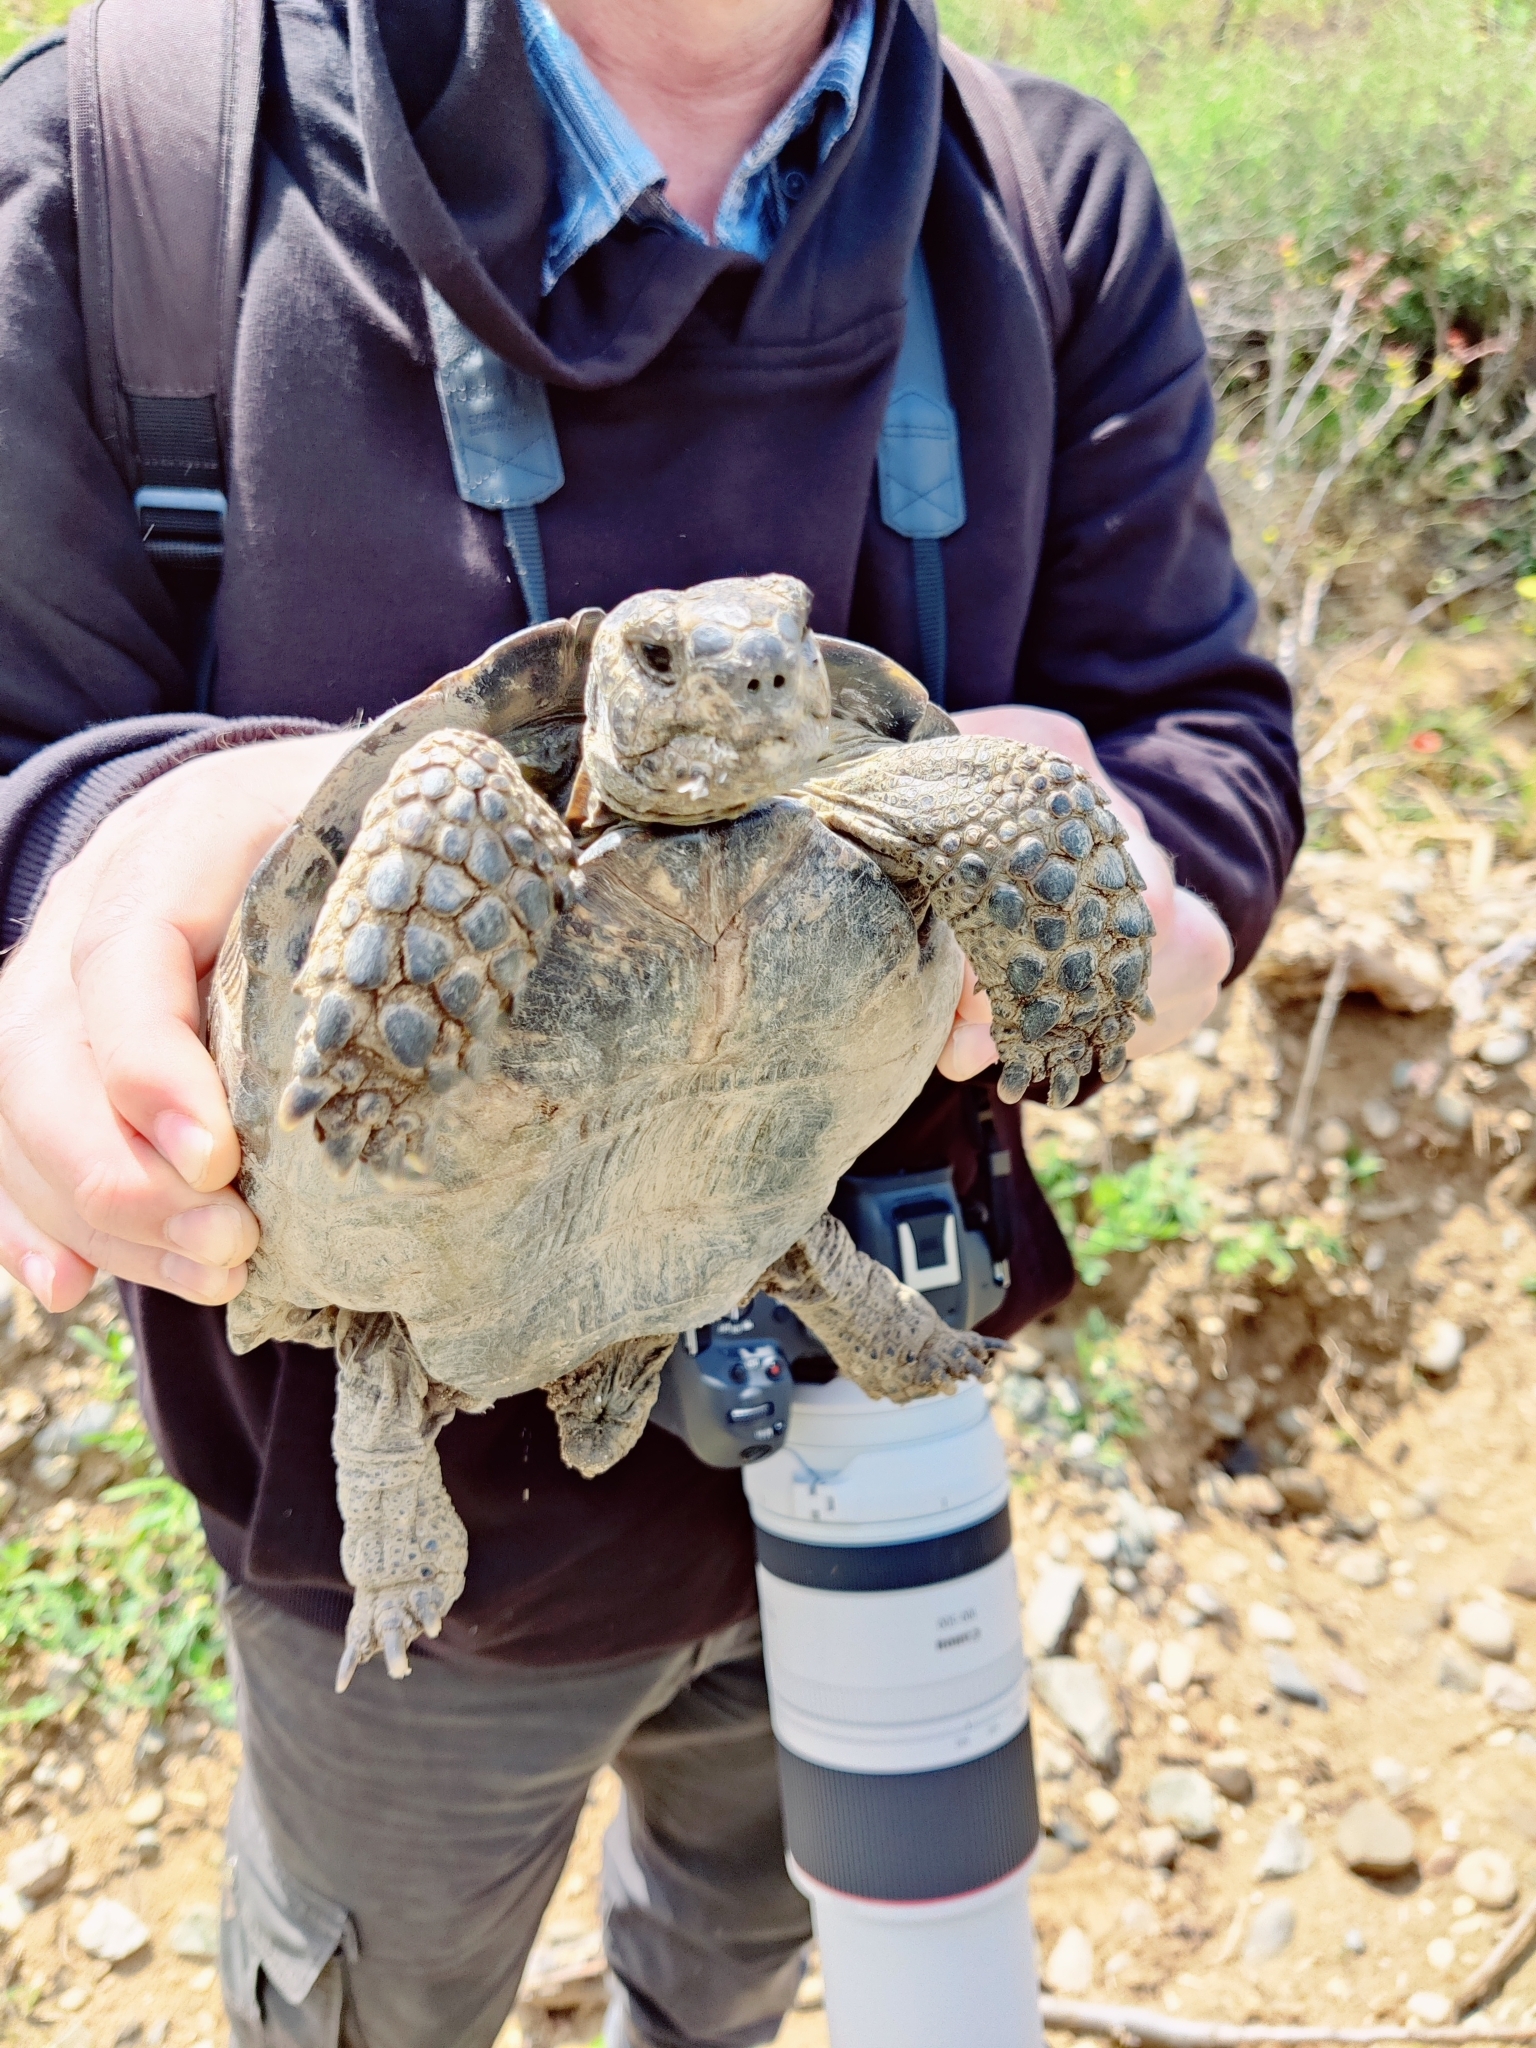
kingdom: Animalia
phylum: Chordata
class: Testudines
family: Testudinidae
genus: Testudo
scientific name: Testudo graeca
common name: Common tortoise
